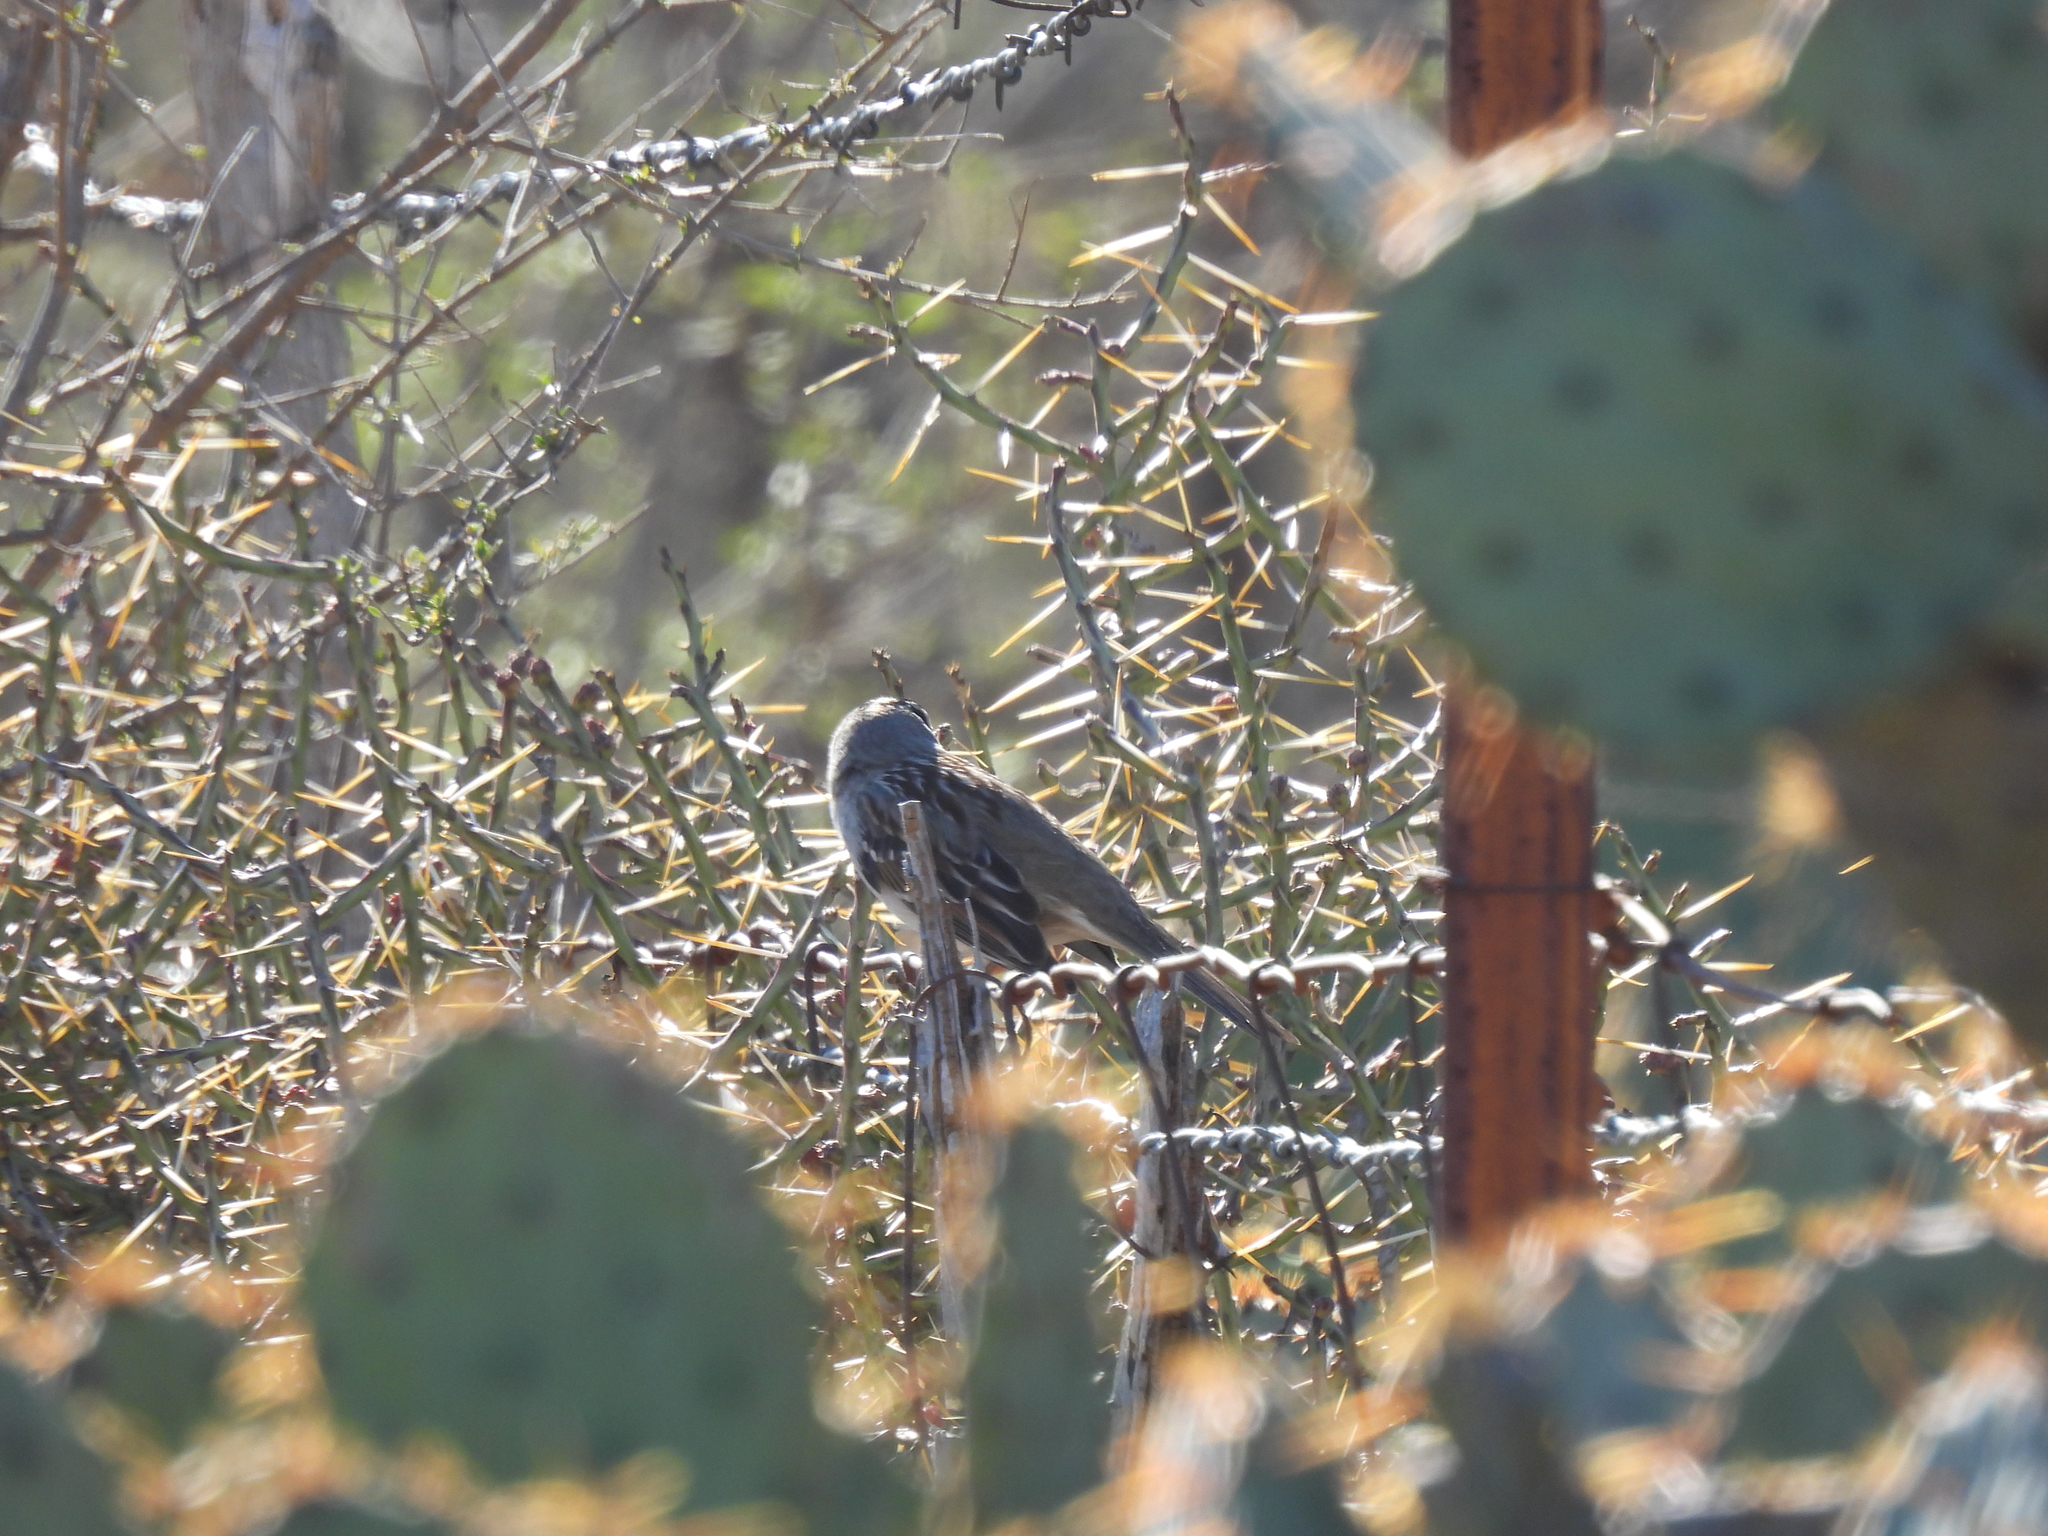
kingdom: Animalia
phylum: Chordata
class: Aves
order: Passeriformes
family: Passerellidae
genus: Zonotrichia
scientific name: Zonotrichia leucophrys
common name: White-crowned sparrow
